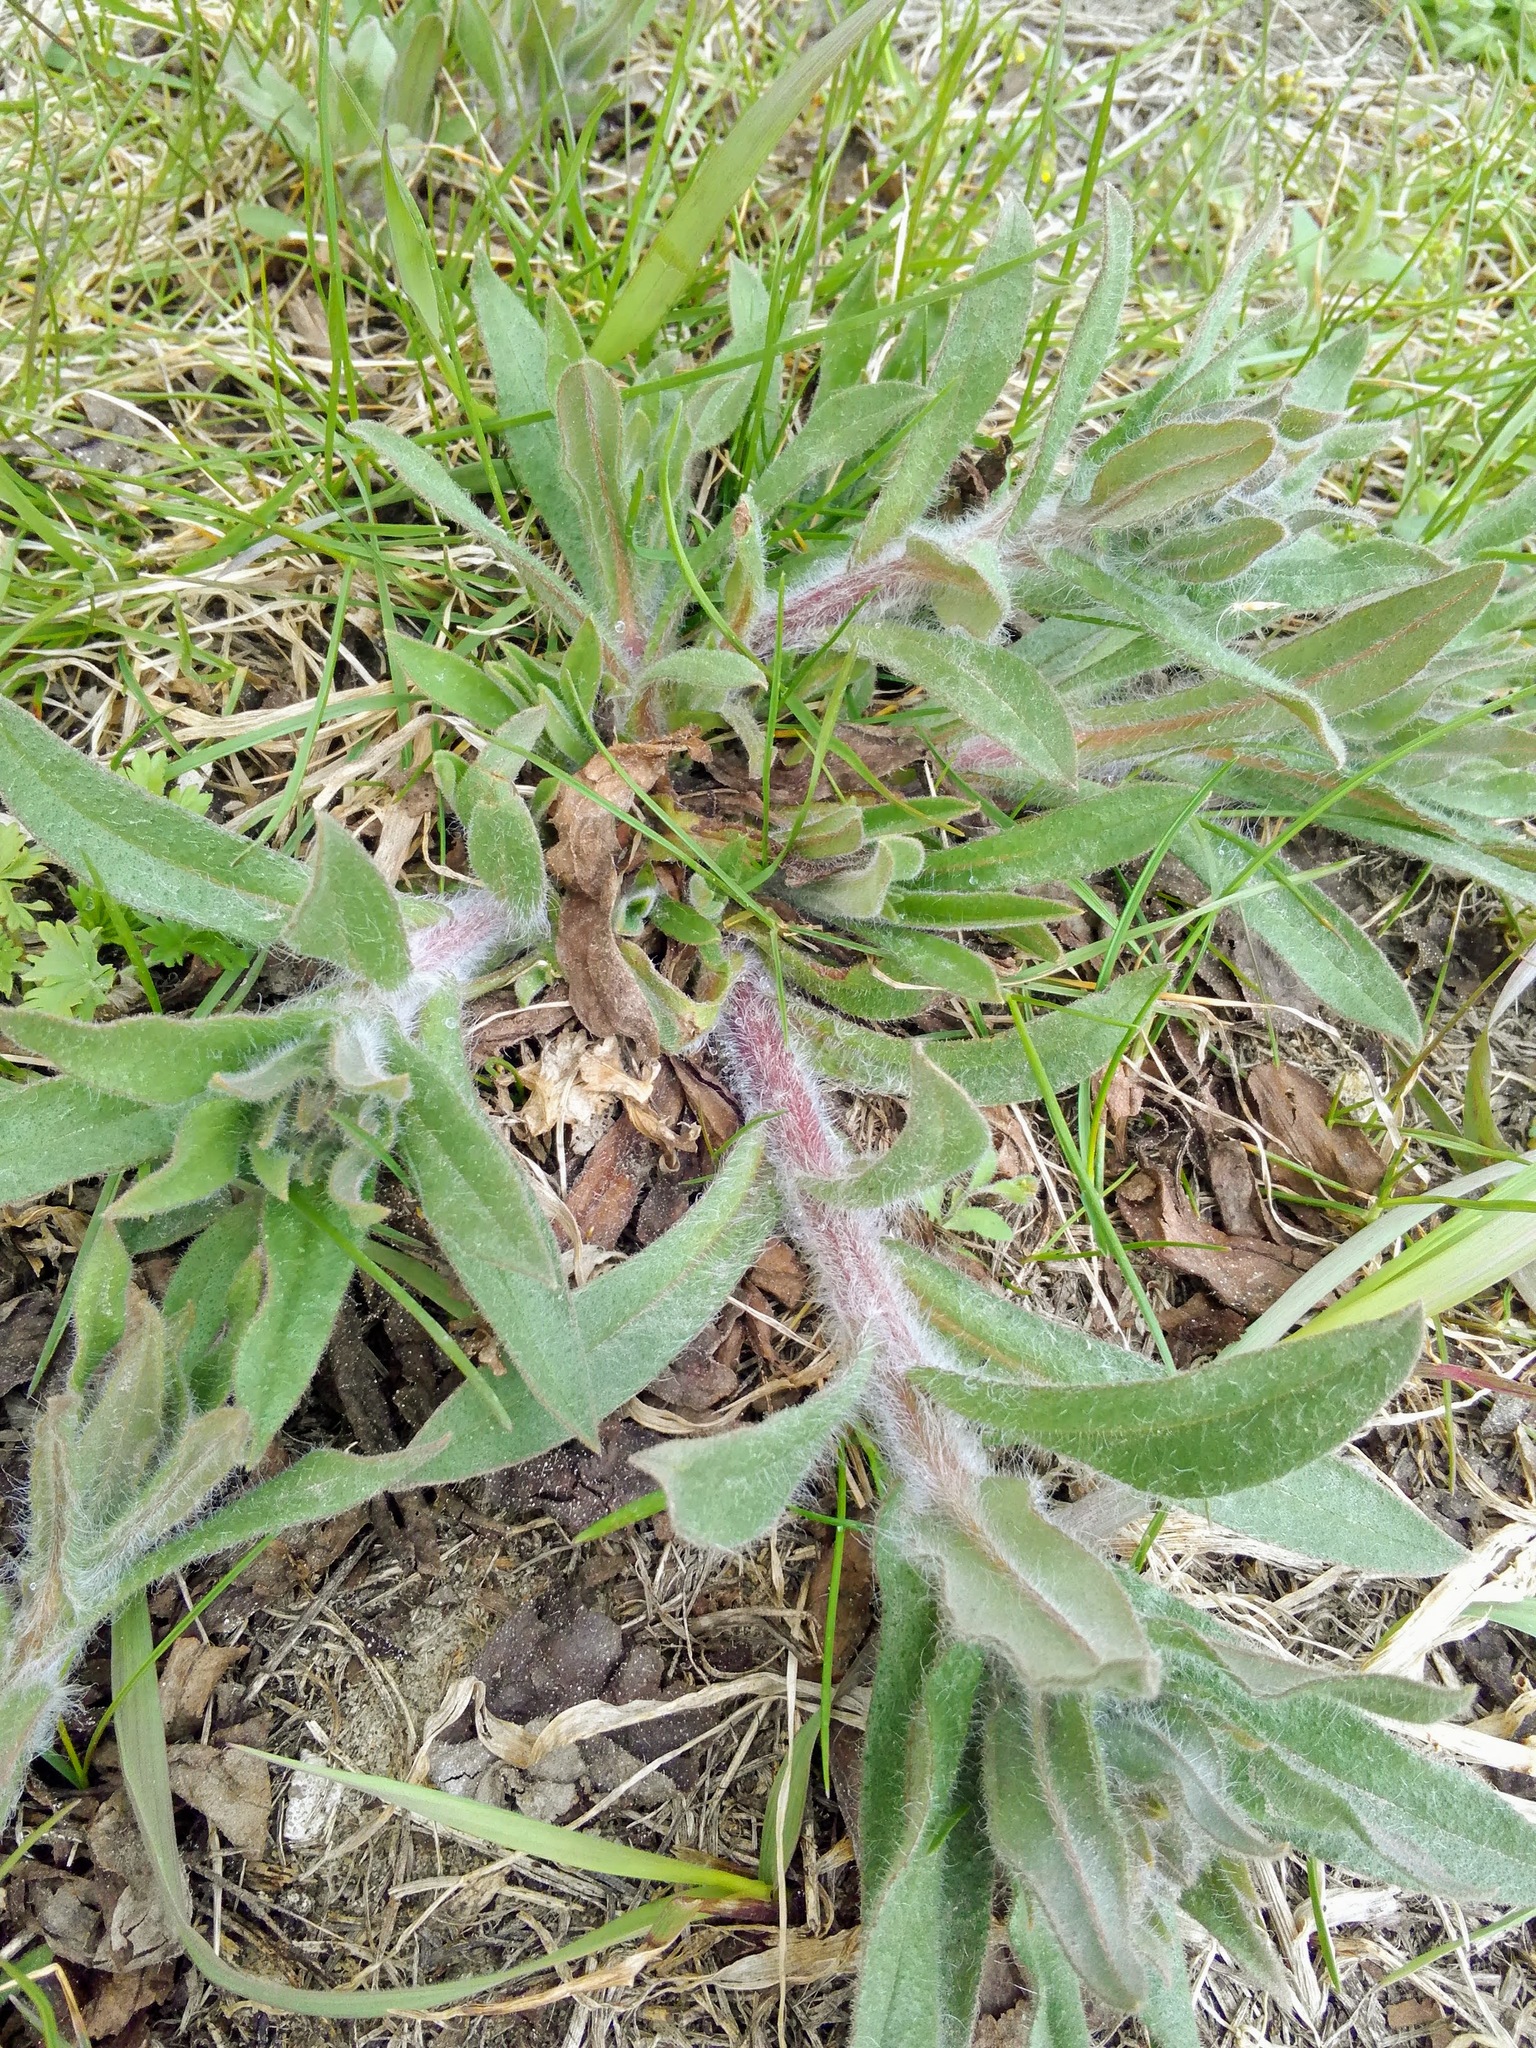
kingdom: Plantae
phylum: Tracheophyta
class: Magnoliopsida
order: Boraginales
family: Boraginaceae
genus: Nonea
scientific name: Nonea pulla
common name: Brown nonea
